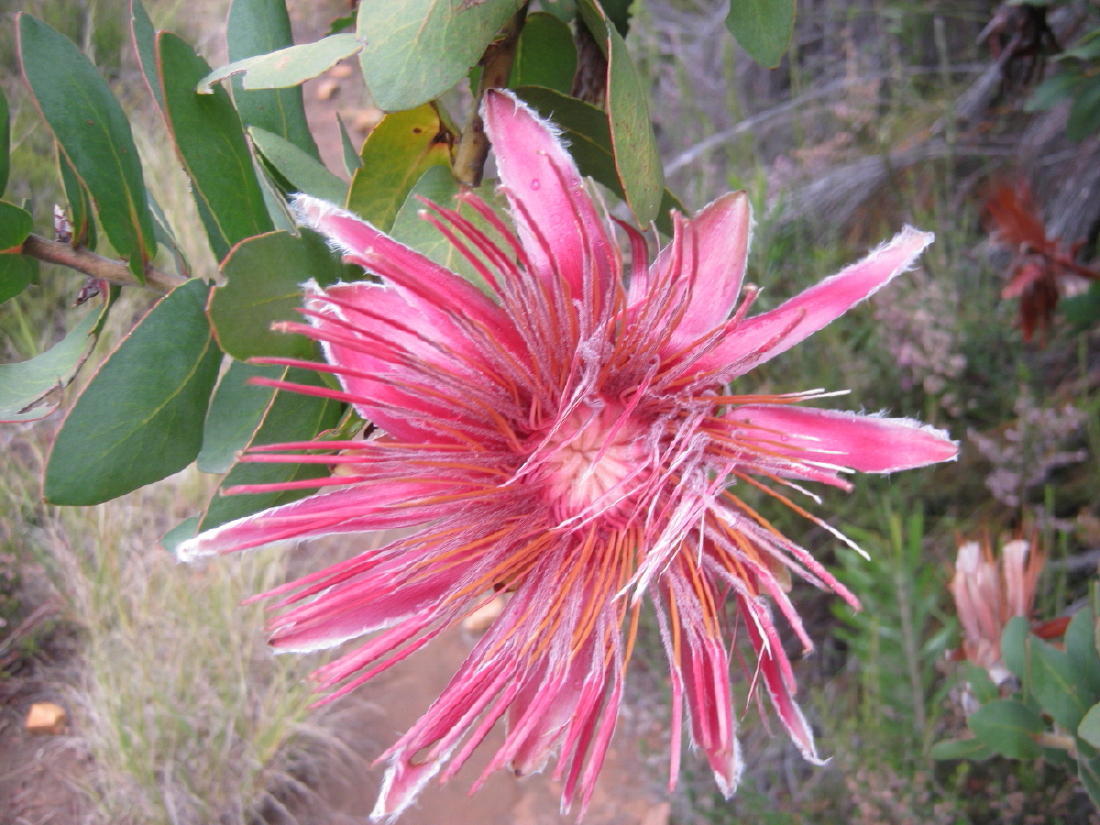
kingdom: Plantae
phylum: Tracheophyta
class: Magnoliopsida
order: Proteales
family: Proteaceae
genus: Protea
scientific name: Protea aurea
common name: Shuttlecock sugarbush
